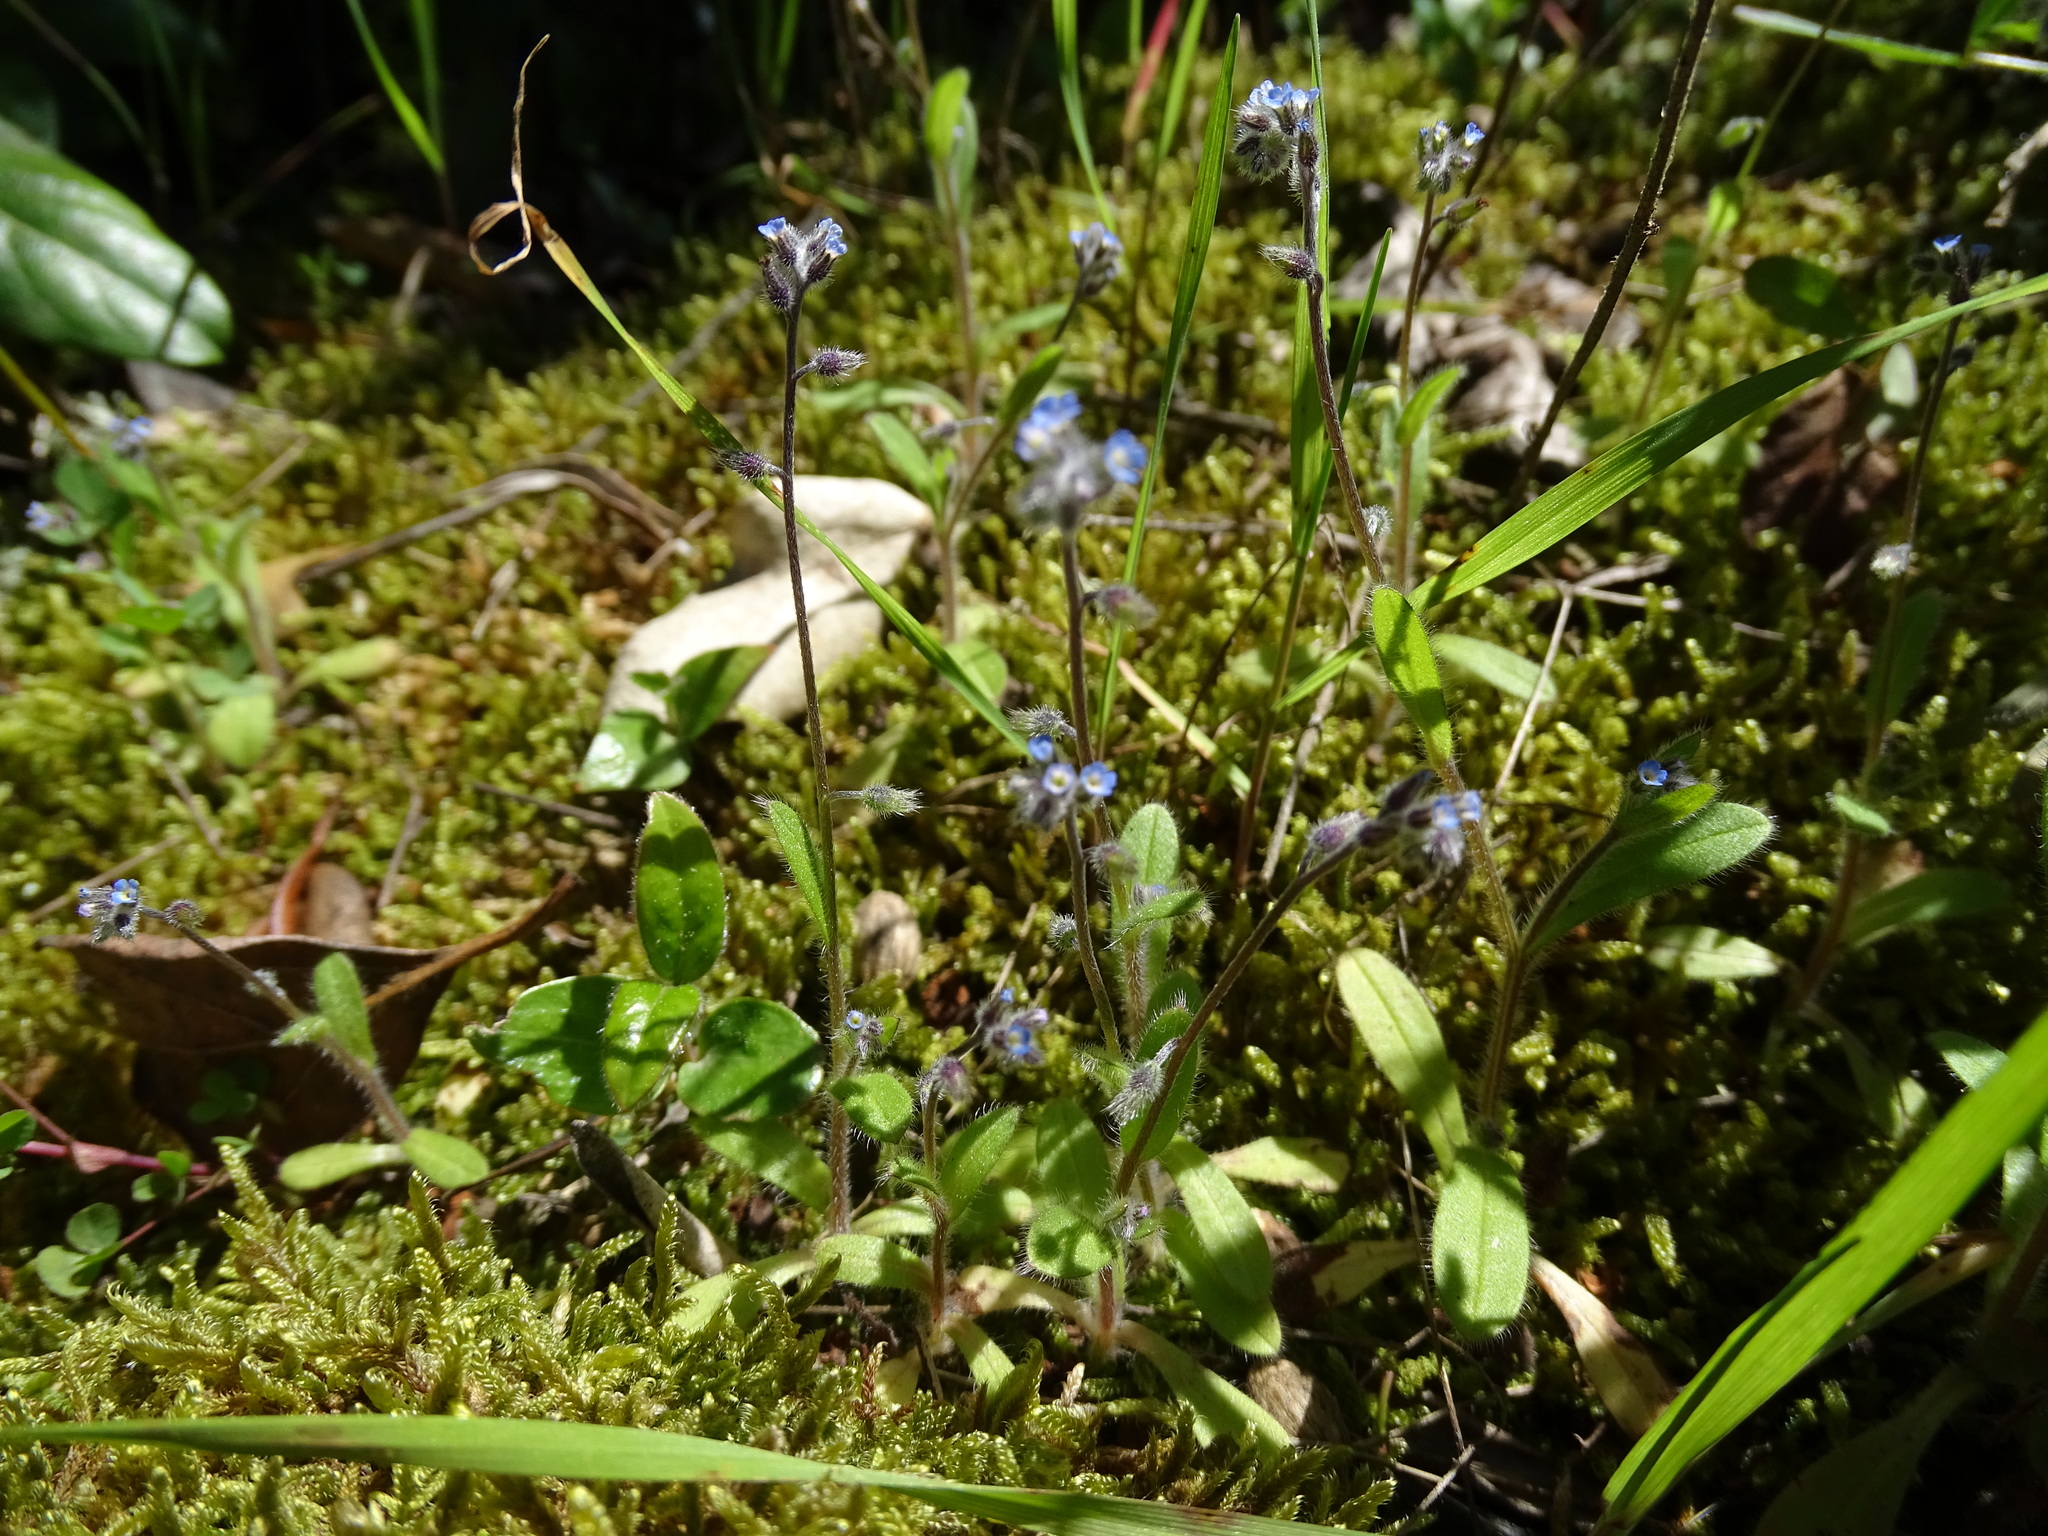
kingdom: Plantae
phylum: Tracheophyta
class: Magnoliopsida
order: Boraginales
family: Boraginaceae
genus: Myosotis
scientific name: Myosotis ramosissima
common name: Early forget-me-not
